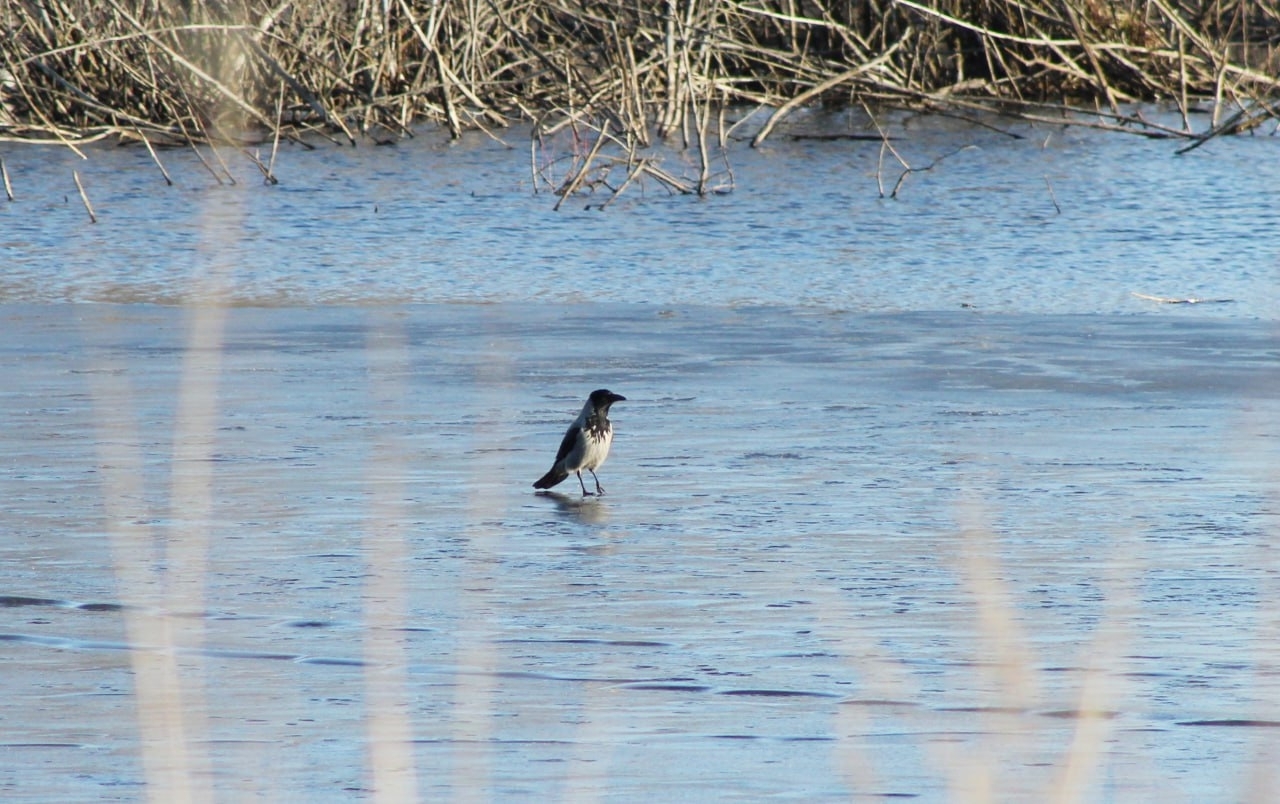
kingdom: Animalia
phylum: Chordata
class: Aves
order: Passeriformes
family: Corvidae
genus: Corvus
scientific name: Corvus cornix
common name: Hooded crow
